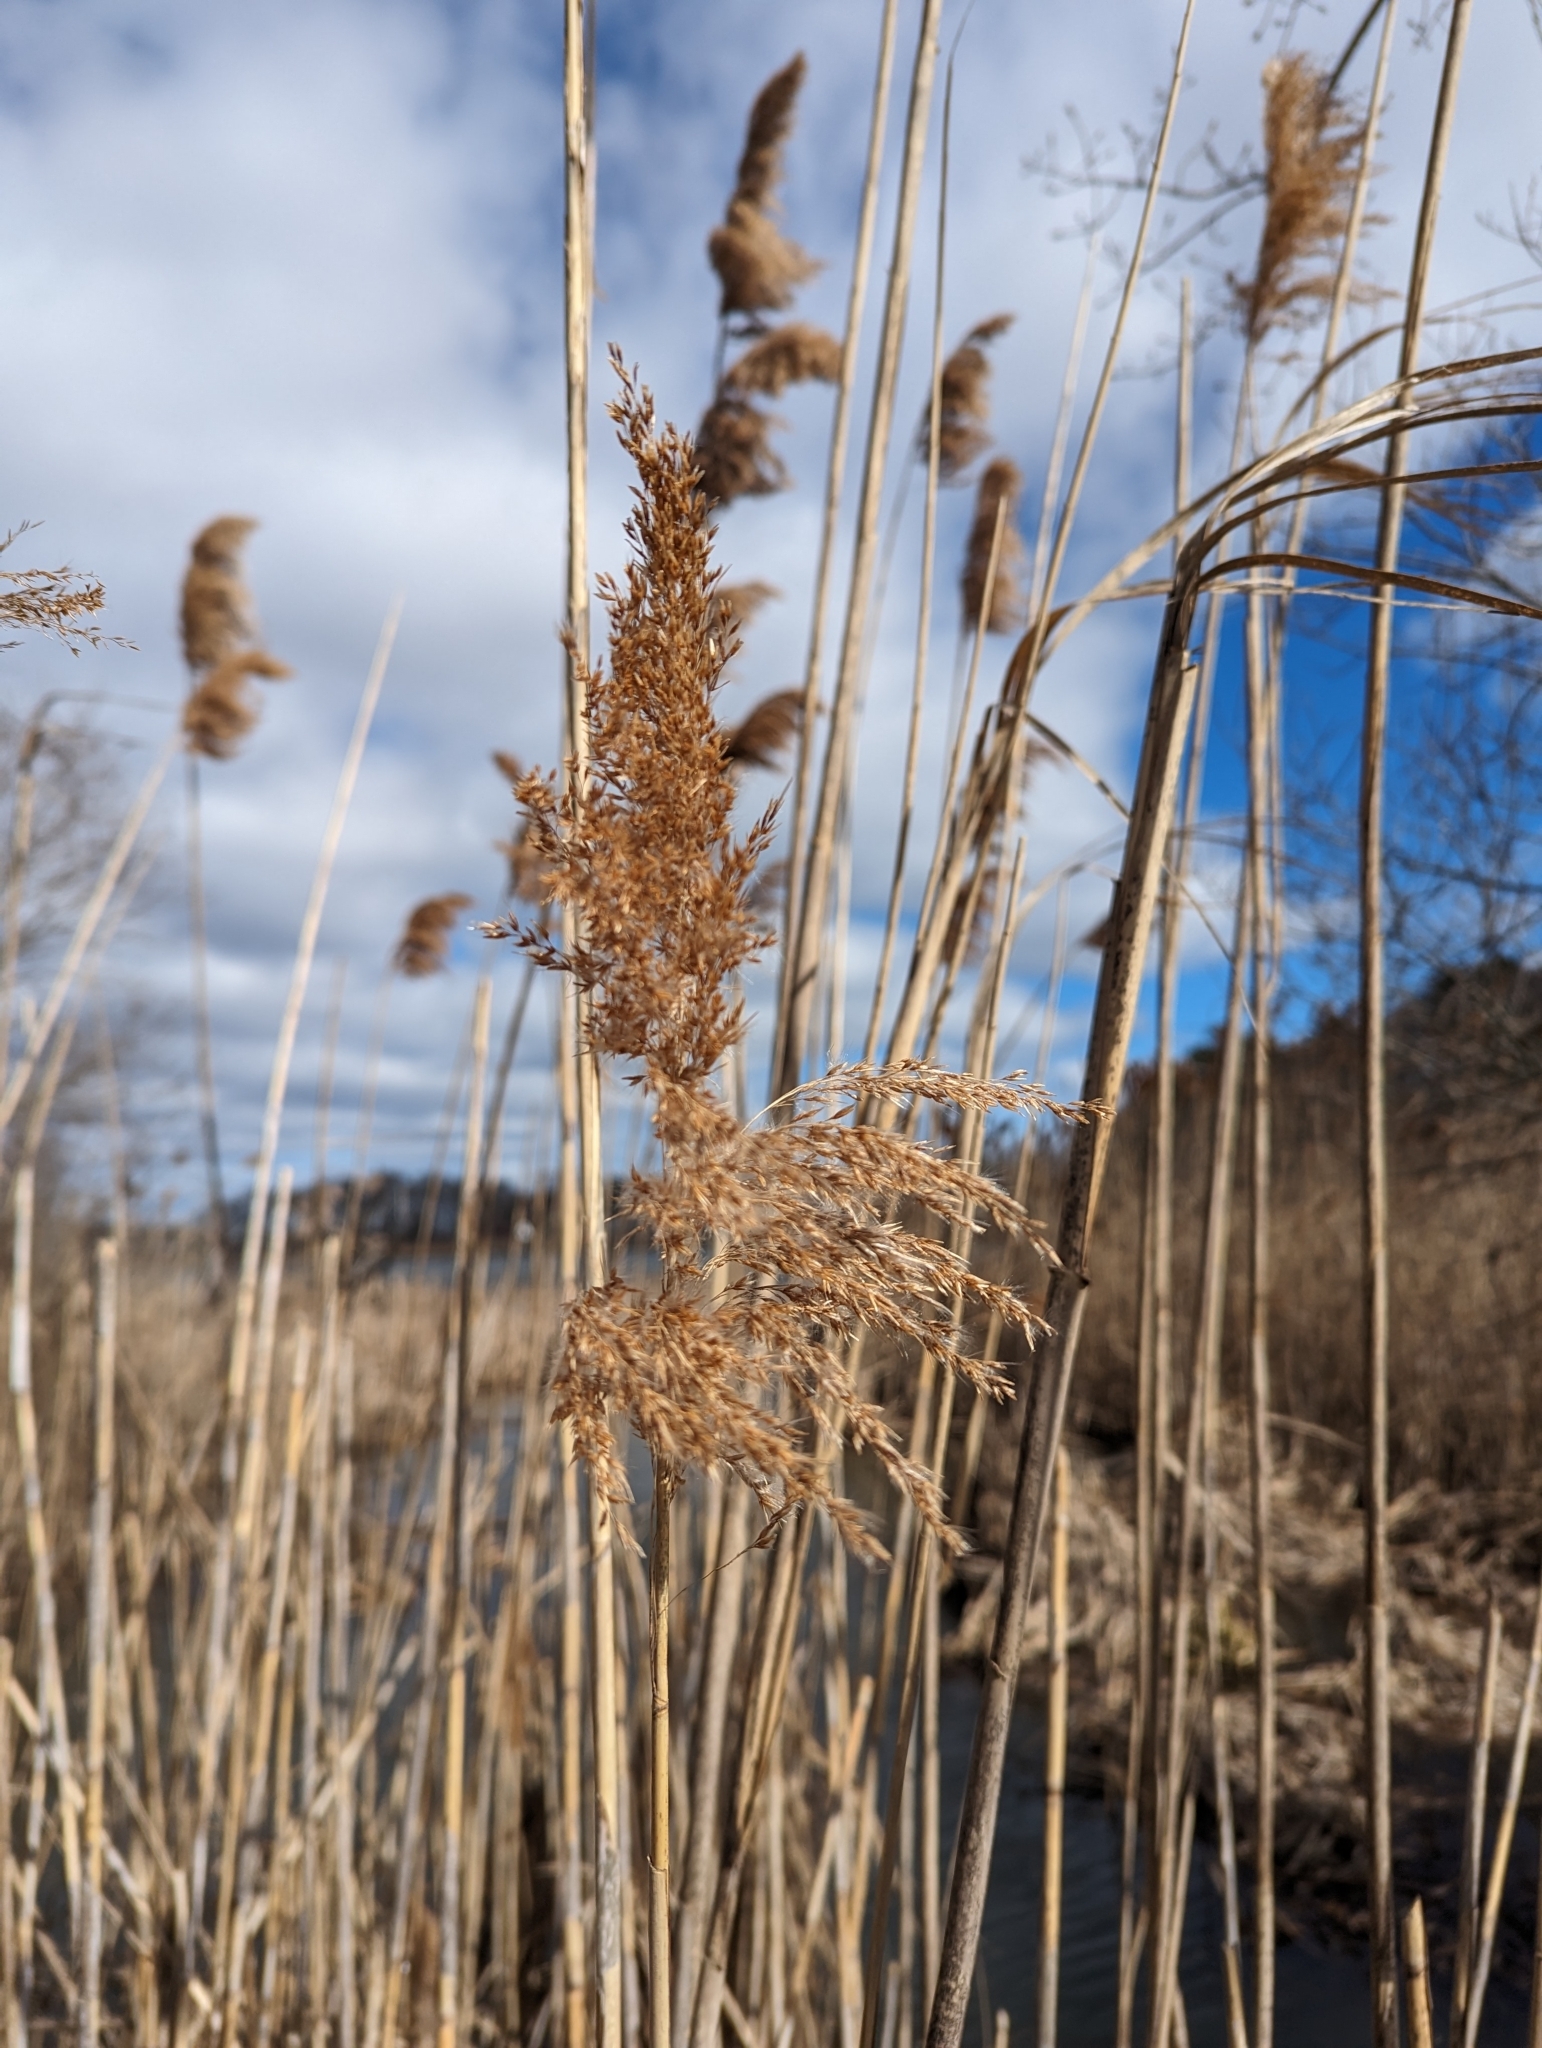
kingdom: Plantae
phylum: Tracheophyta
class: Liliopsida
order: Poales
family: Poaceae
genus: Phragmites
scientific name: Phragmites australis
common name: Common reed
